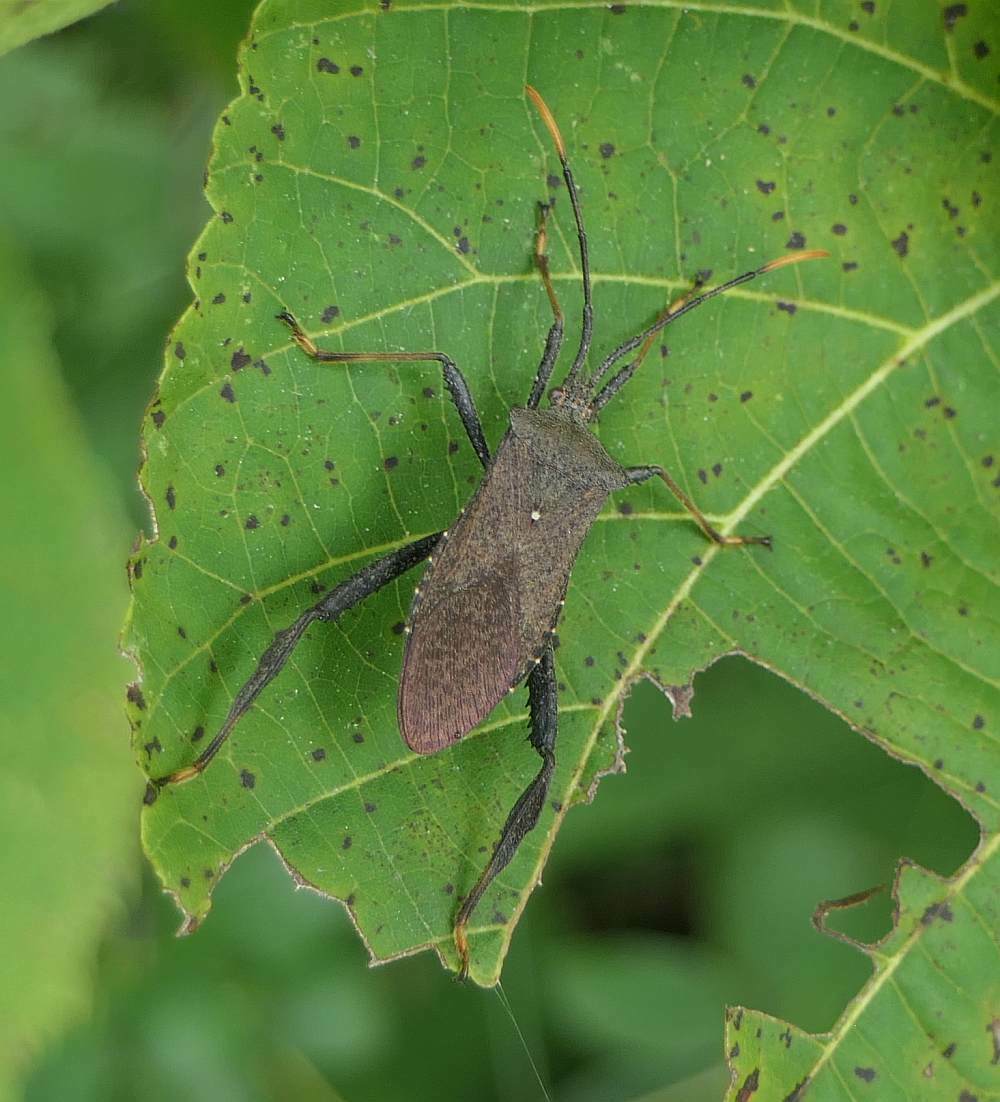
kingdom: Animalia
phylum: Arthropoda
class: Insecta
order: Hemiptera
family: Coreidae
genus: Acanthocephala
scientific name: Acanthocephala terminalis
